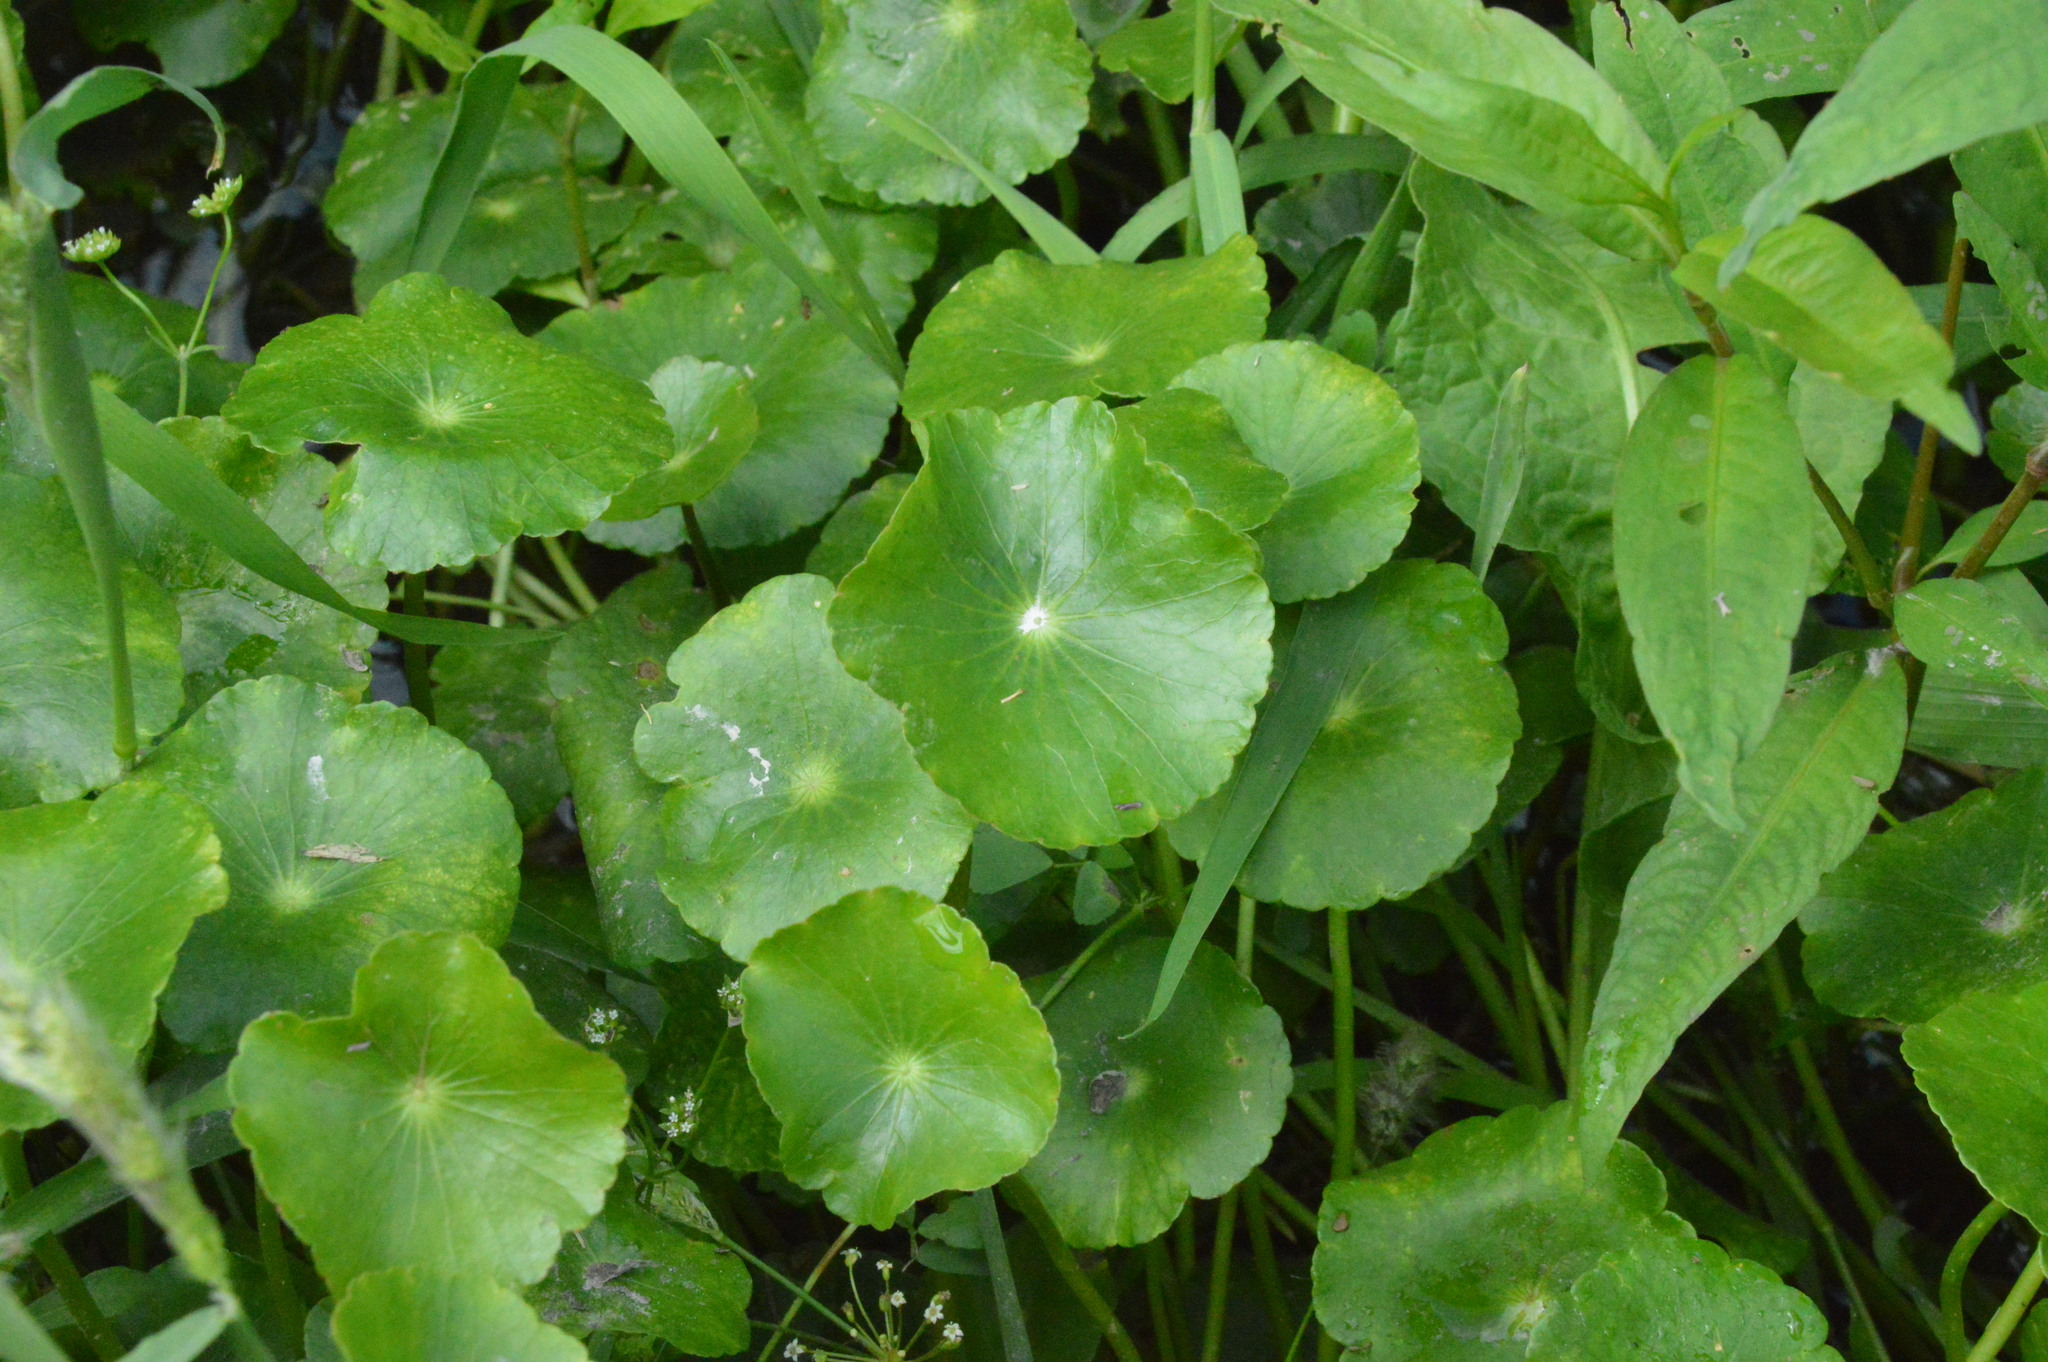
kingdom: Plantae
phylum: Tracheophyta
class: Magnoliopsida
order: Apiales
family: Araliaceae
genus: Hydrocotyle
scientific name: Hydrocotyle umbellata
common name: Water pennywort
